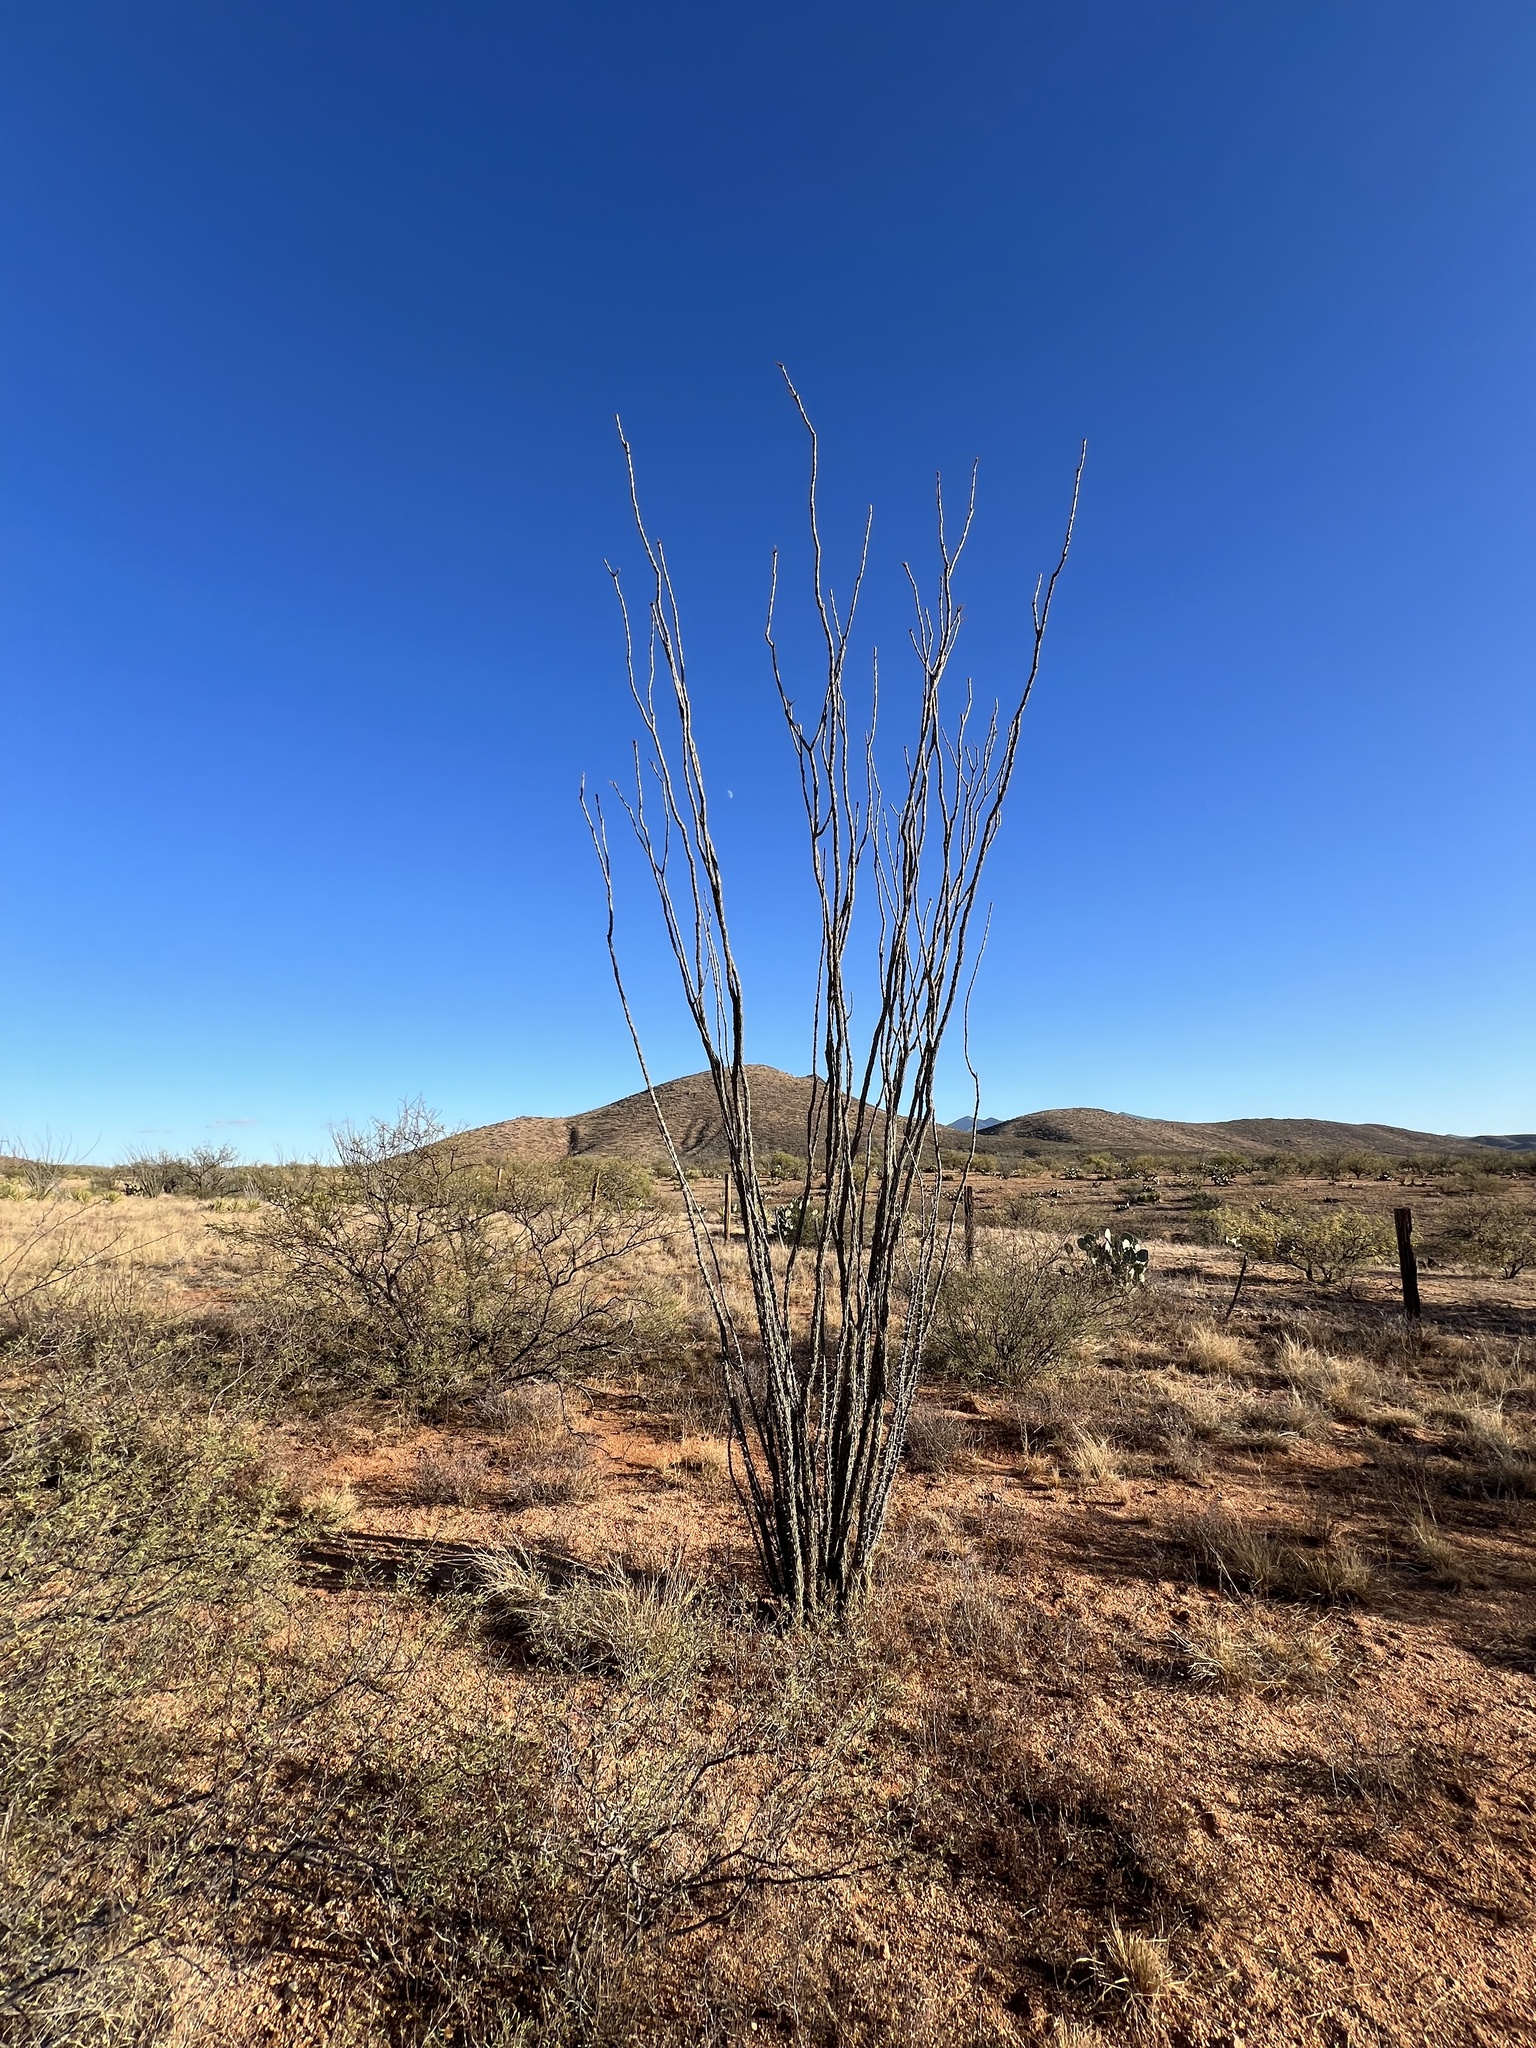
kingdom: Plantae
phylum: Tracheophyta
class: Magnoliopsida
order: Ericales
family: Fouquieriaceae
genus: Fouquieria
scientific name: Fouquieria splendens
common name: Vine-cactus
